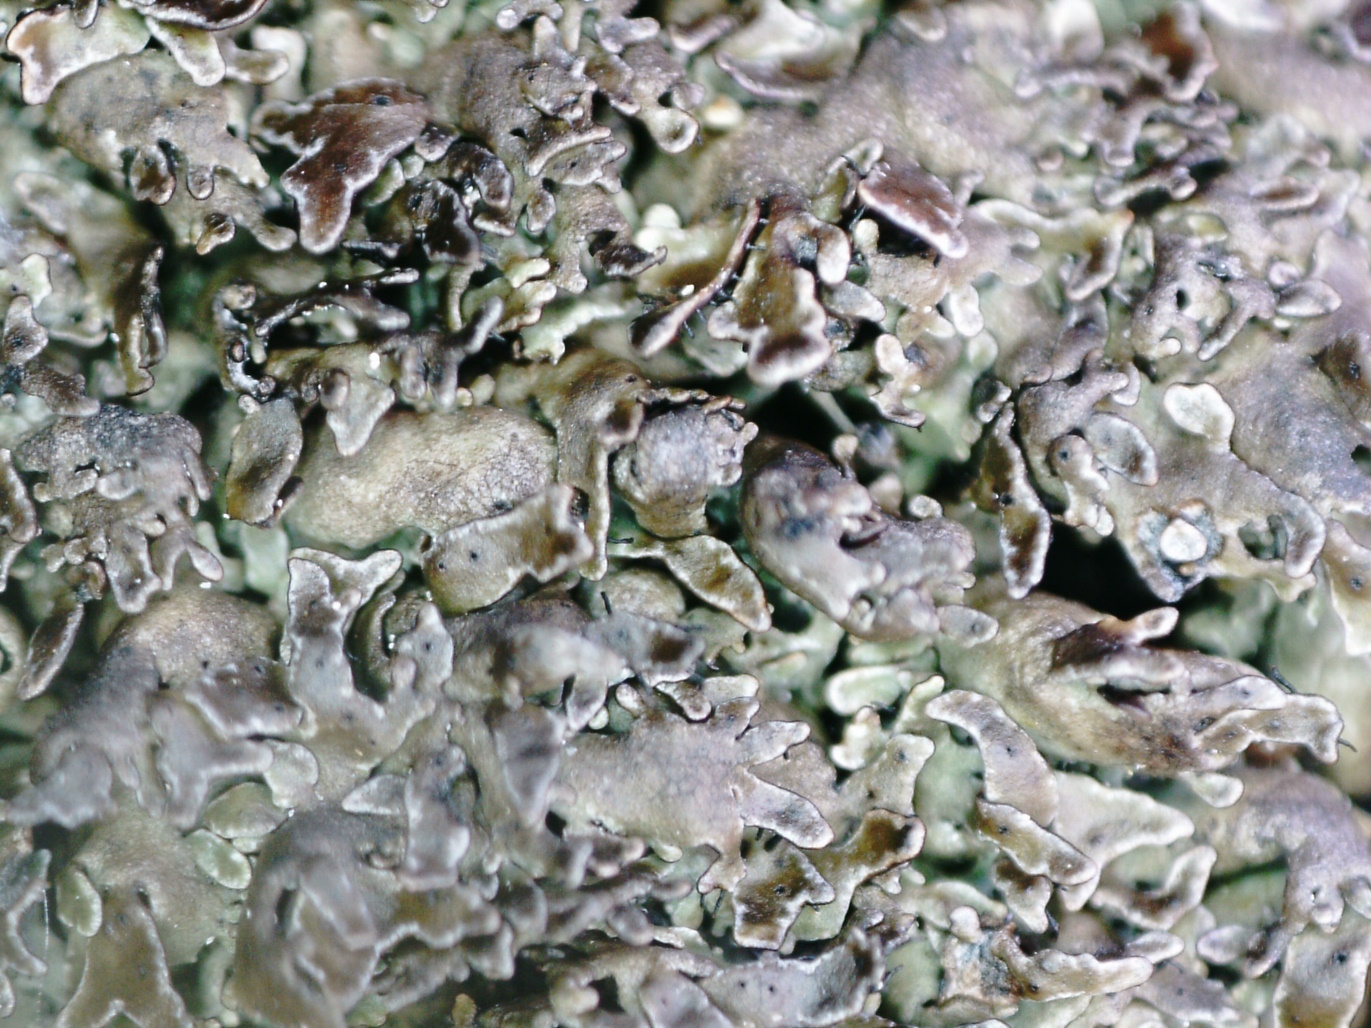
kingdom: Fungi
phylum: Ascomycota
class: Lecanoromycetes
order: Lecanorales
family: Parmeliaceae
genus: Parmelia
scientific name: Parmelia omphalodes
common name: Smoky crottle
